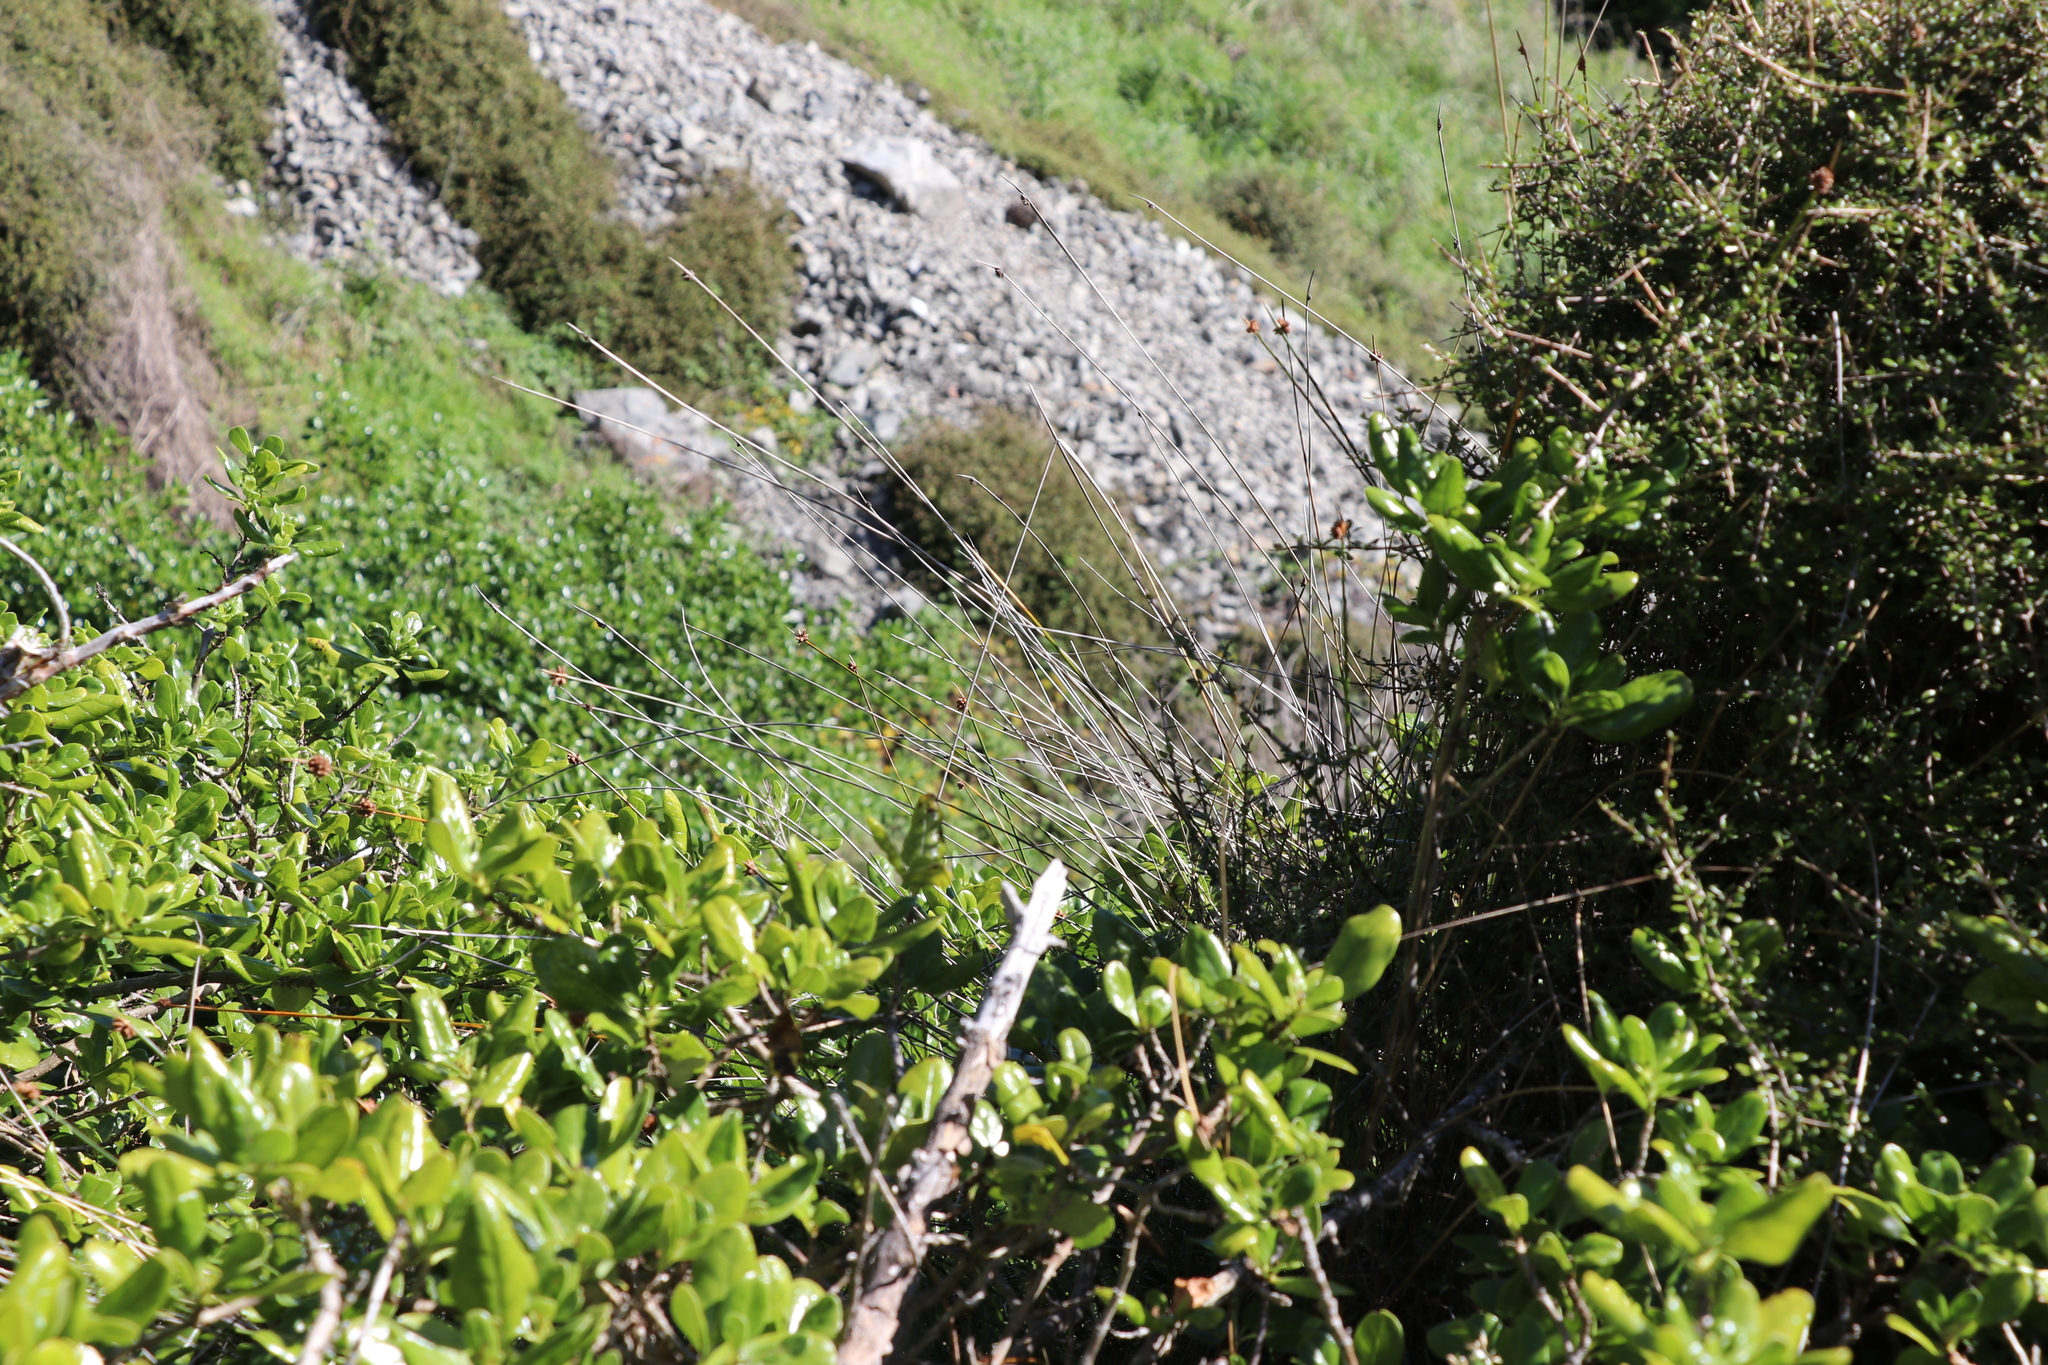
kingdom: Plantae
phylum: Tracheophyta
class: Liliopsida
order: Poales
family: Cyperaceae
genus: Ficinia
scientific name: Ficinia nodosa
